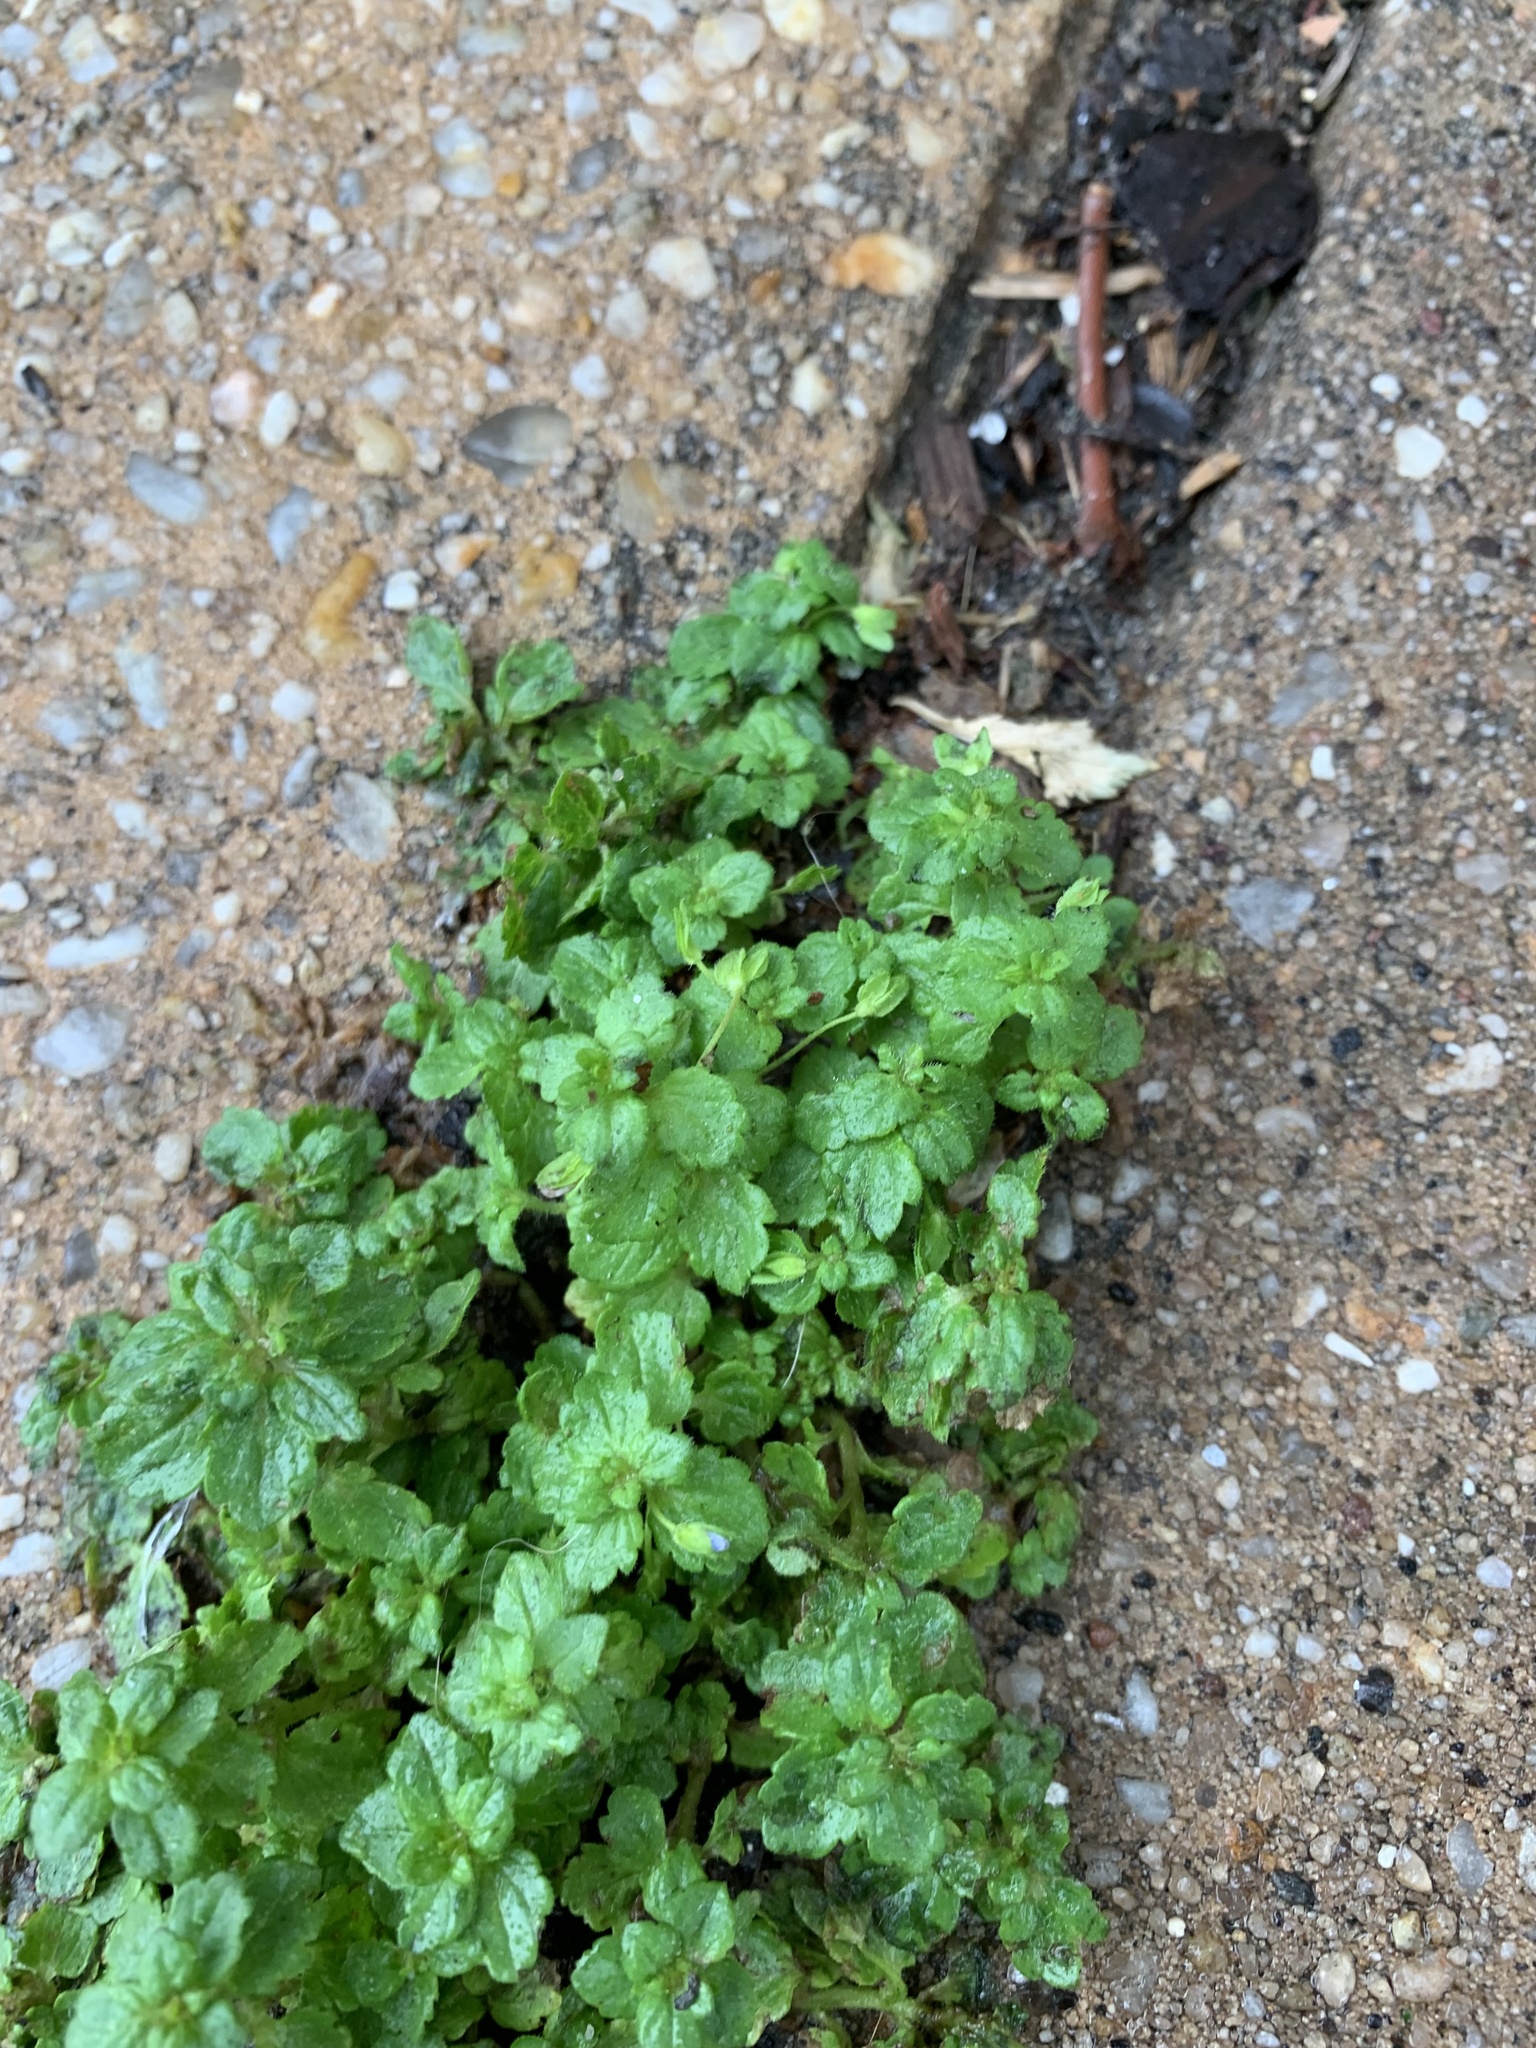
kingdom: Plantae
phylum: Tracheophyta
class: Magnoliopsida
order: Lamiales
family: Plantaginaceae
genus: Veronica
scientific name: Veronica persica
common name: Common field-speedwell
